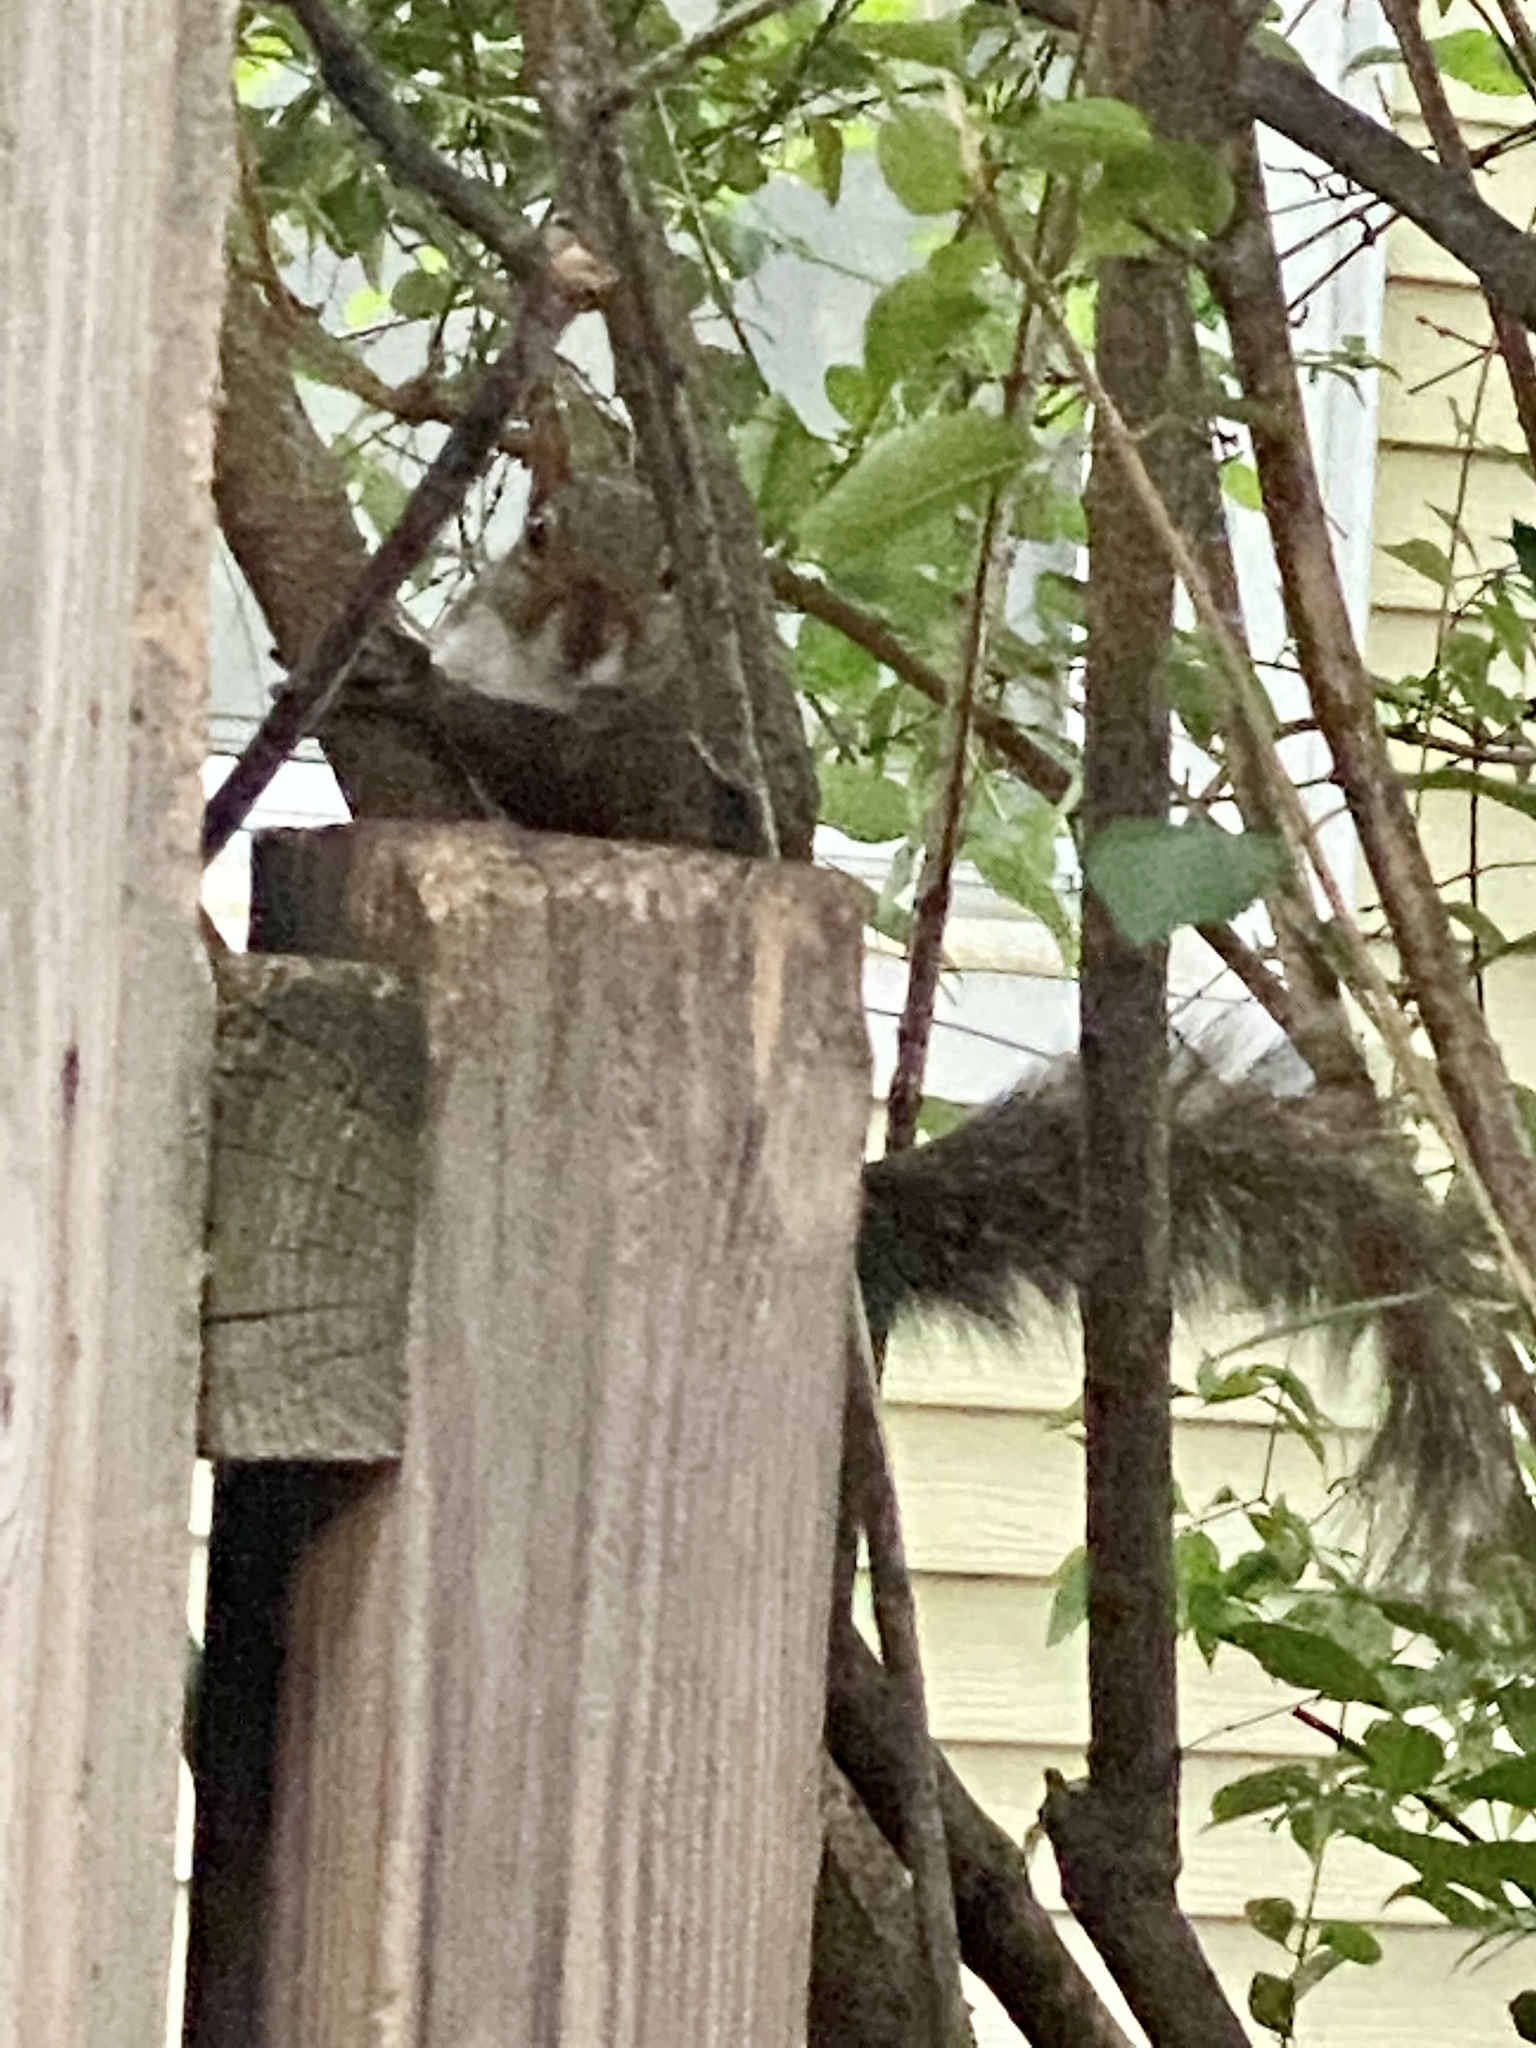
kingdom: Animalia
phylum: Chordata
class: Mammalia
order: Rodentia
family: Sciuridae
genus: Sciurus
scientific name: Sciurus carolinensis
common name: Eastern gray squirrel
